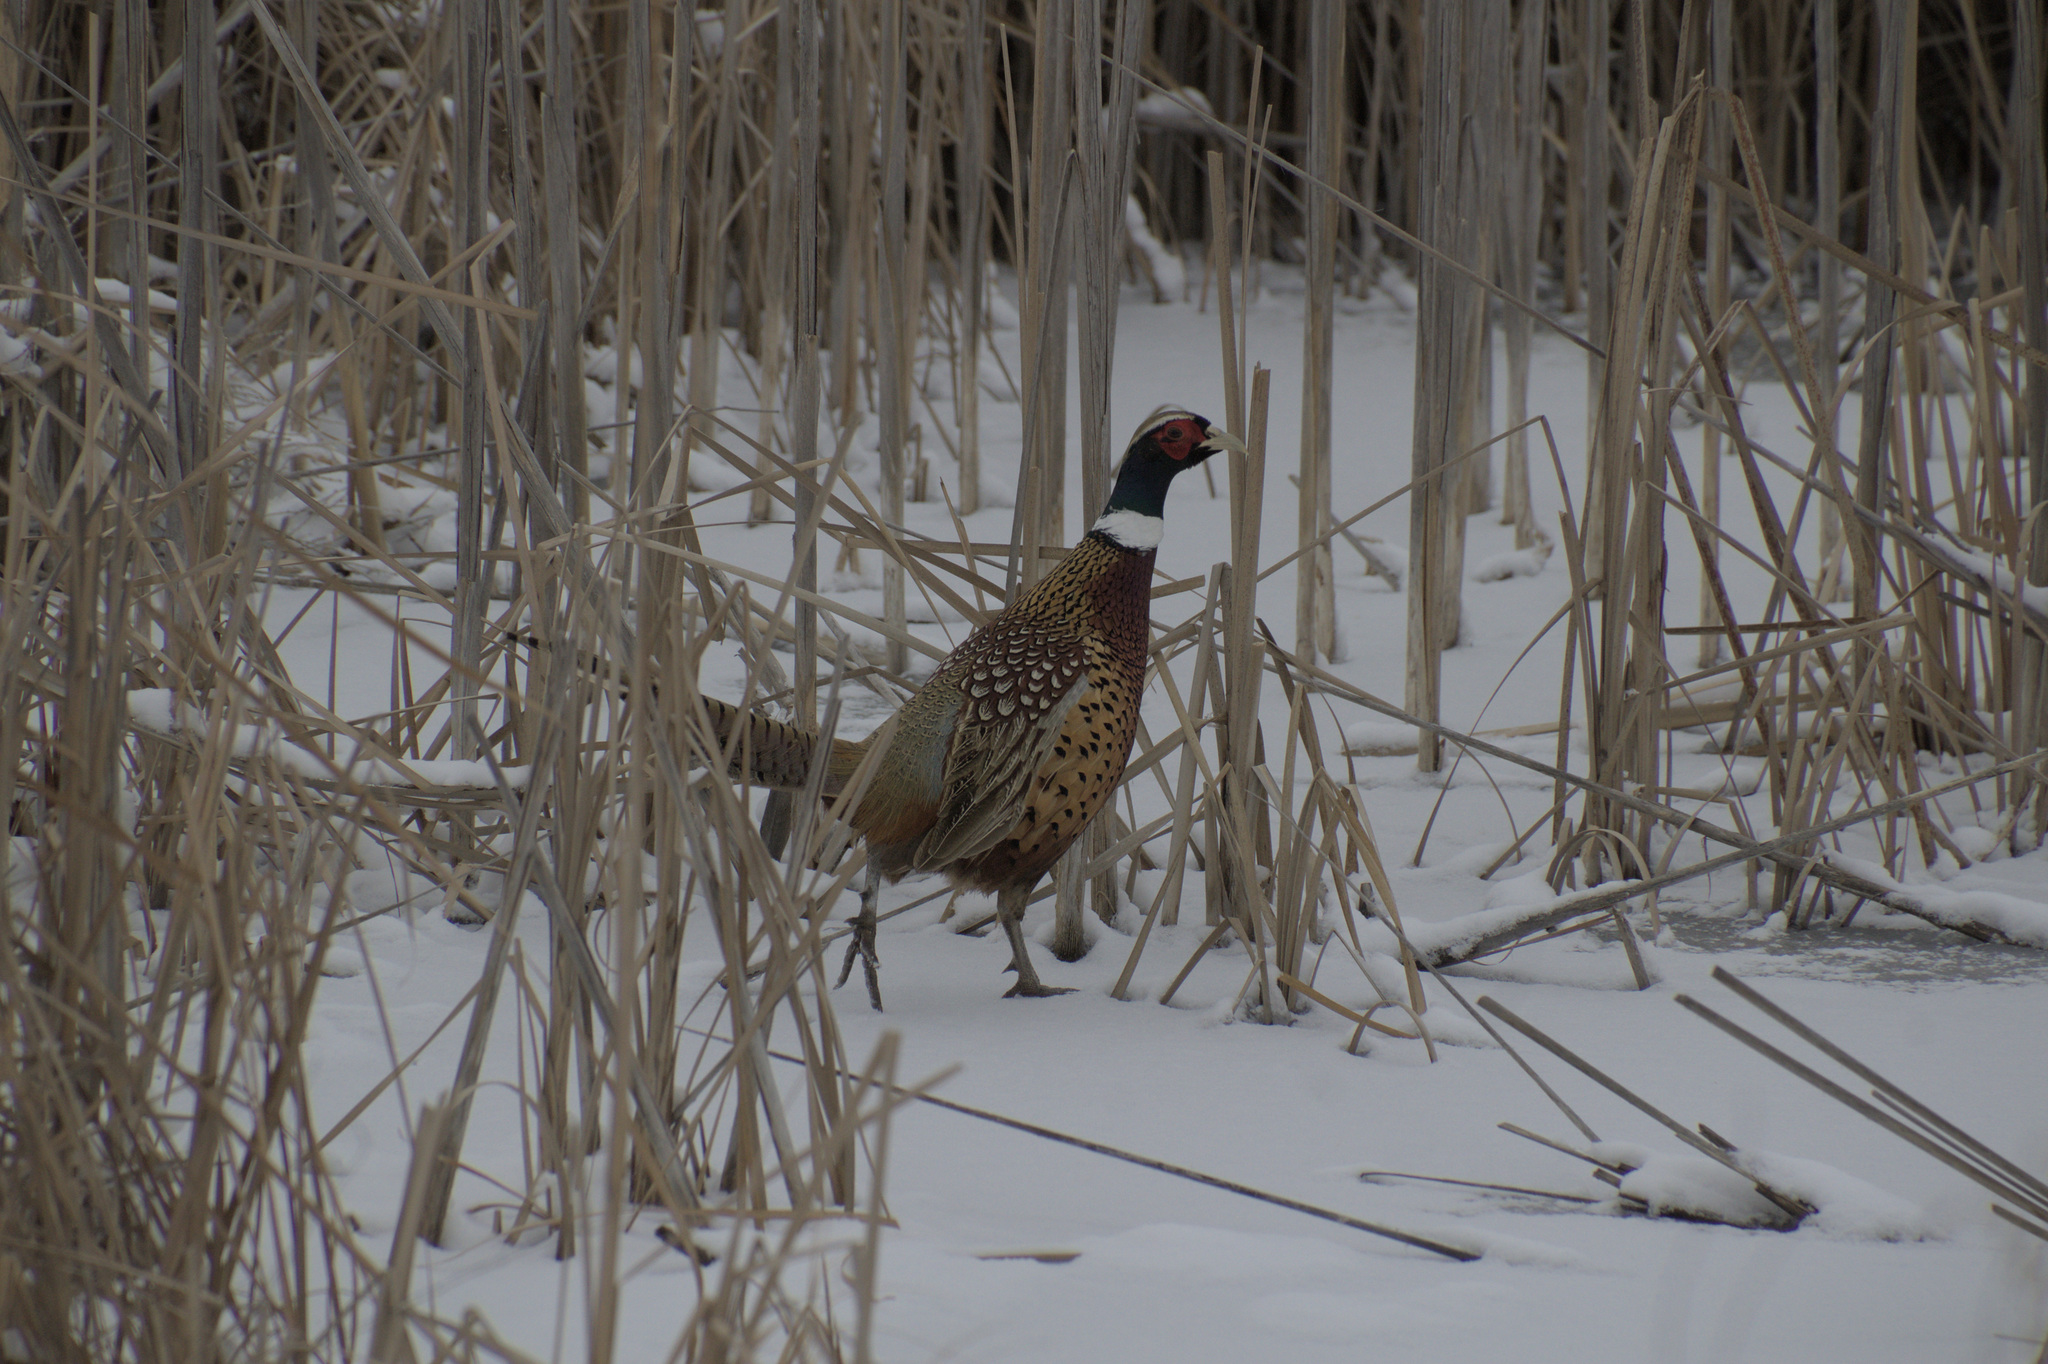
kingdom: Animalia
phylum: Chordata
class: Aves
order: Galliformes
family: Phasianidae
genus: Phasianus
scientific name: Phasianus colchicus
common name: Common pheasant
